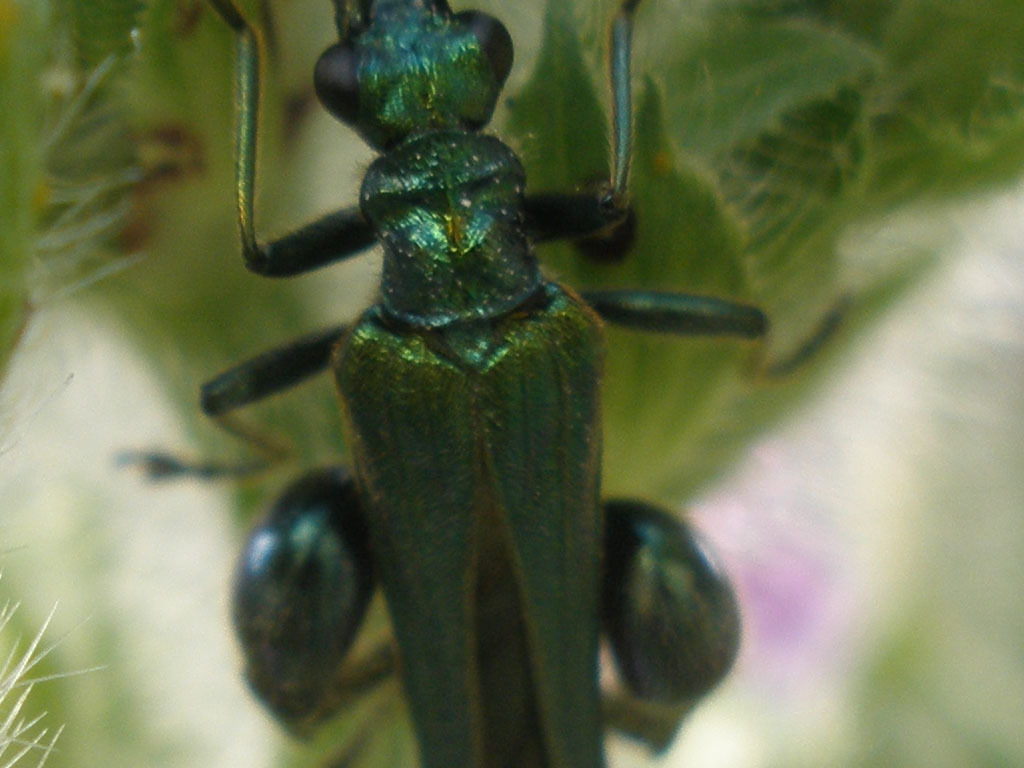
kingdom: Animalia
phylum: Arthropoda
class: Insecta
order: Coleoptera
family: Oedemeridae
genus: Oedemera
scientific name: Oedemera nobilis
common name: Swollen-thighed beetle
